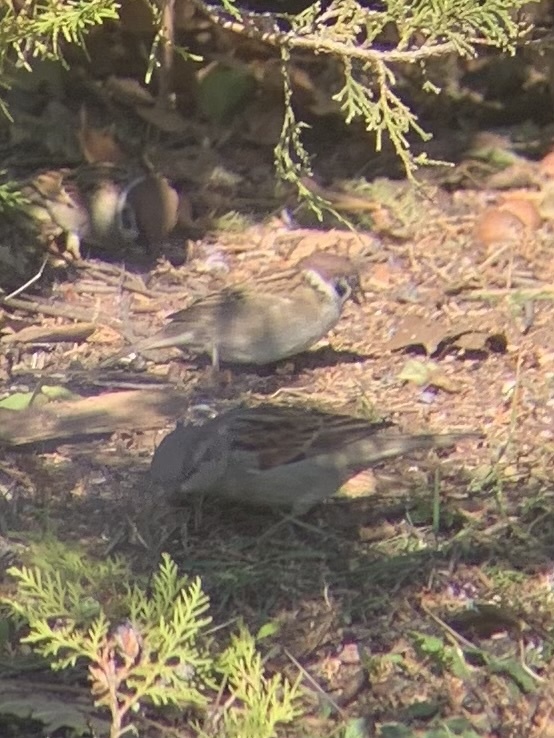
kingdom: Animalia
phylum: Chordata
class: Aves
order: Passeriformes
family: Passeridae
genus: Passer
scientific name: Passer montanus
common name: Eurasian tree sparrow
